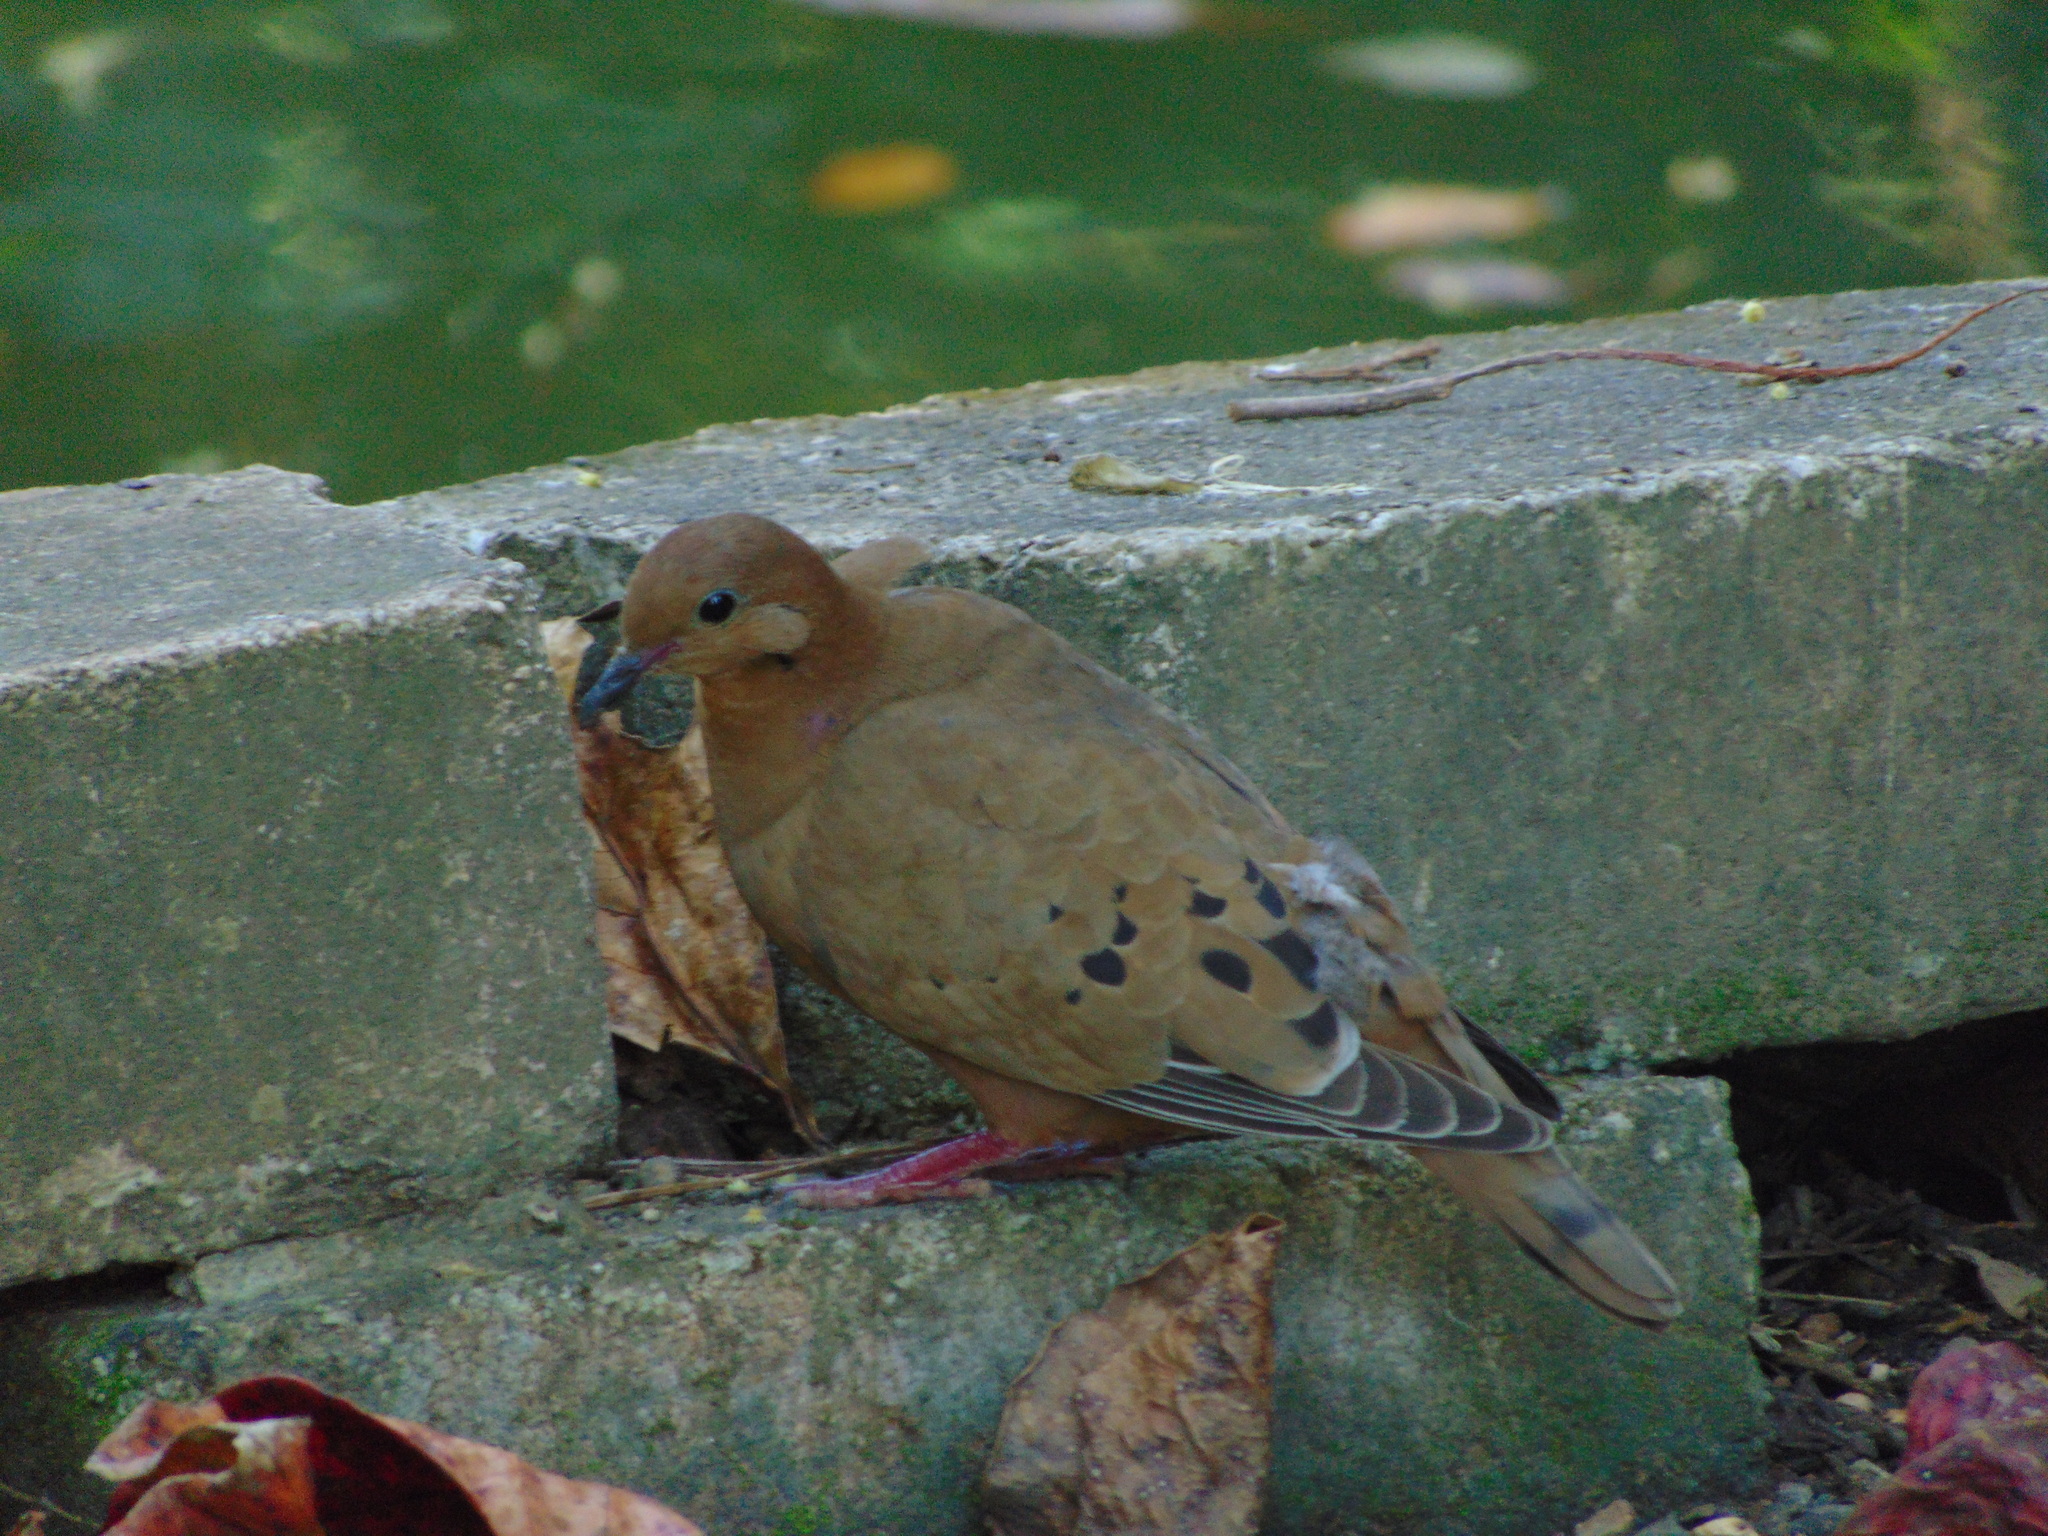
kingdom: Animalia
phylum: Chordata
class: Aves
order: Columbiformes
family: Columbidae
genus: Zenaida
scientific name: Zenaida aurita
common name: Zenaida dove
